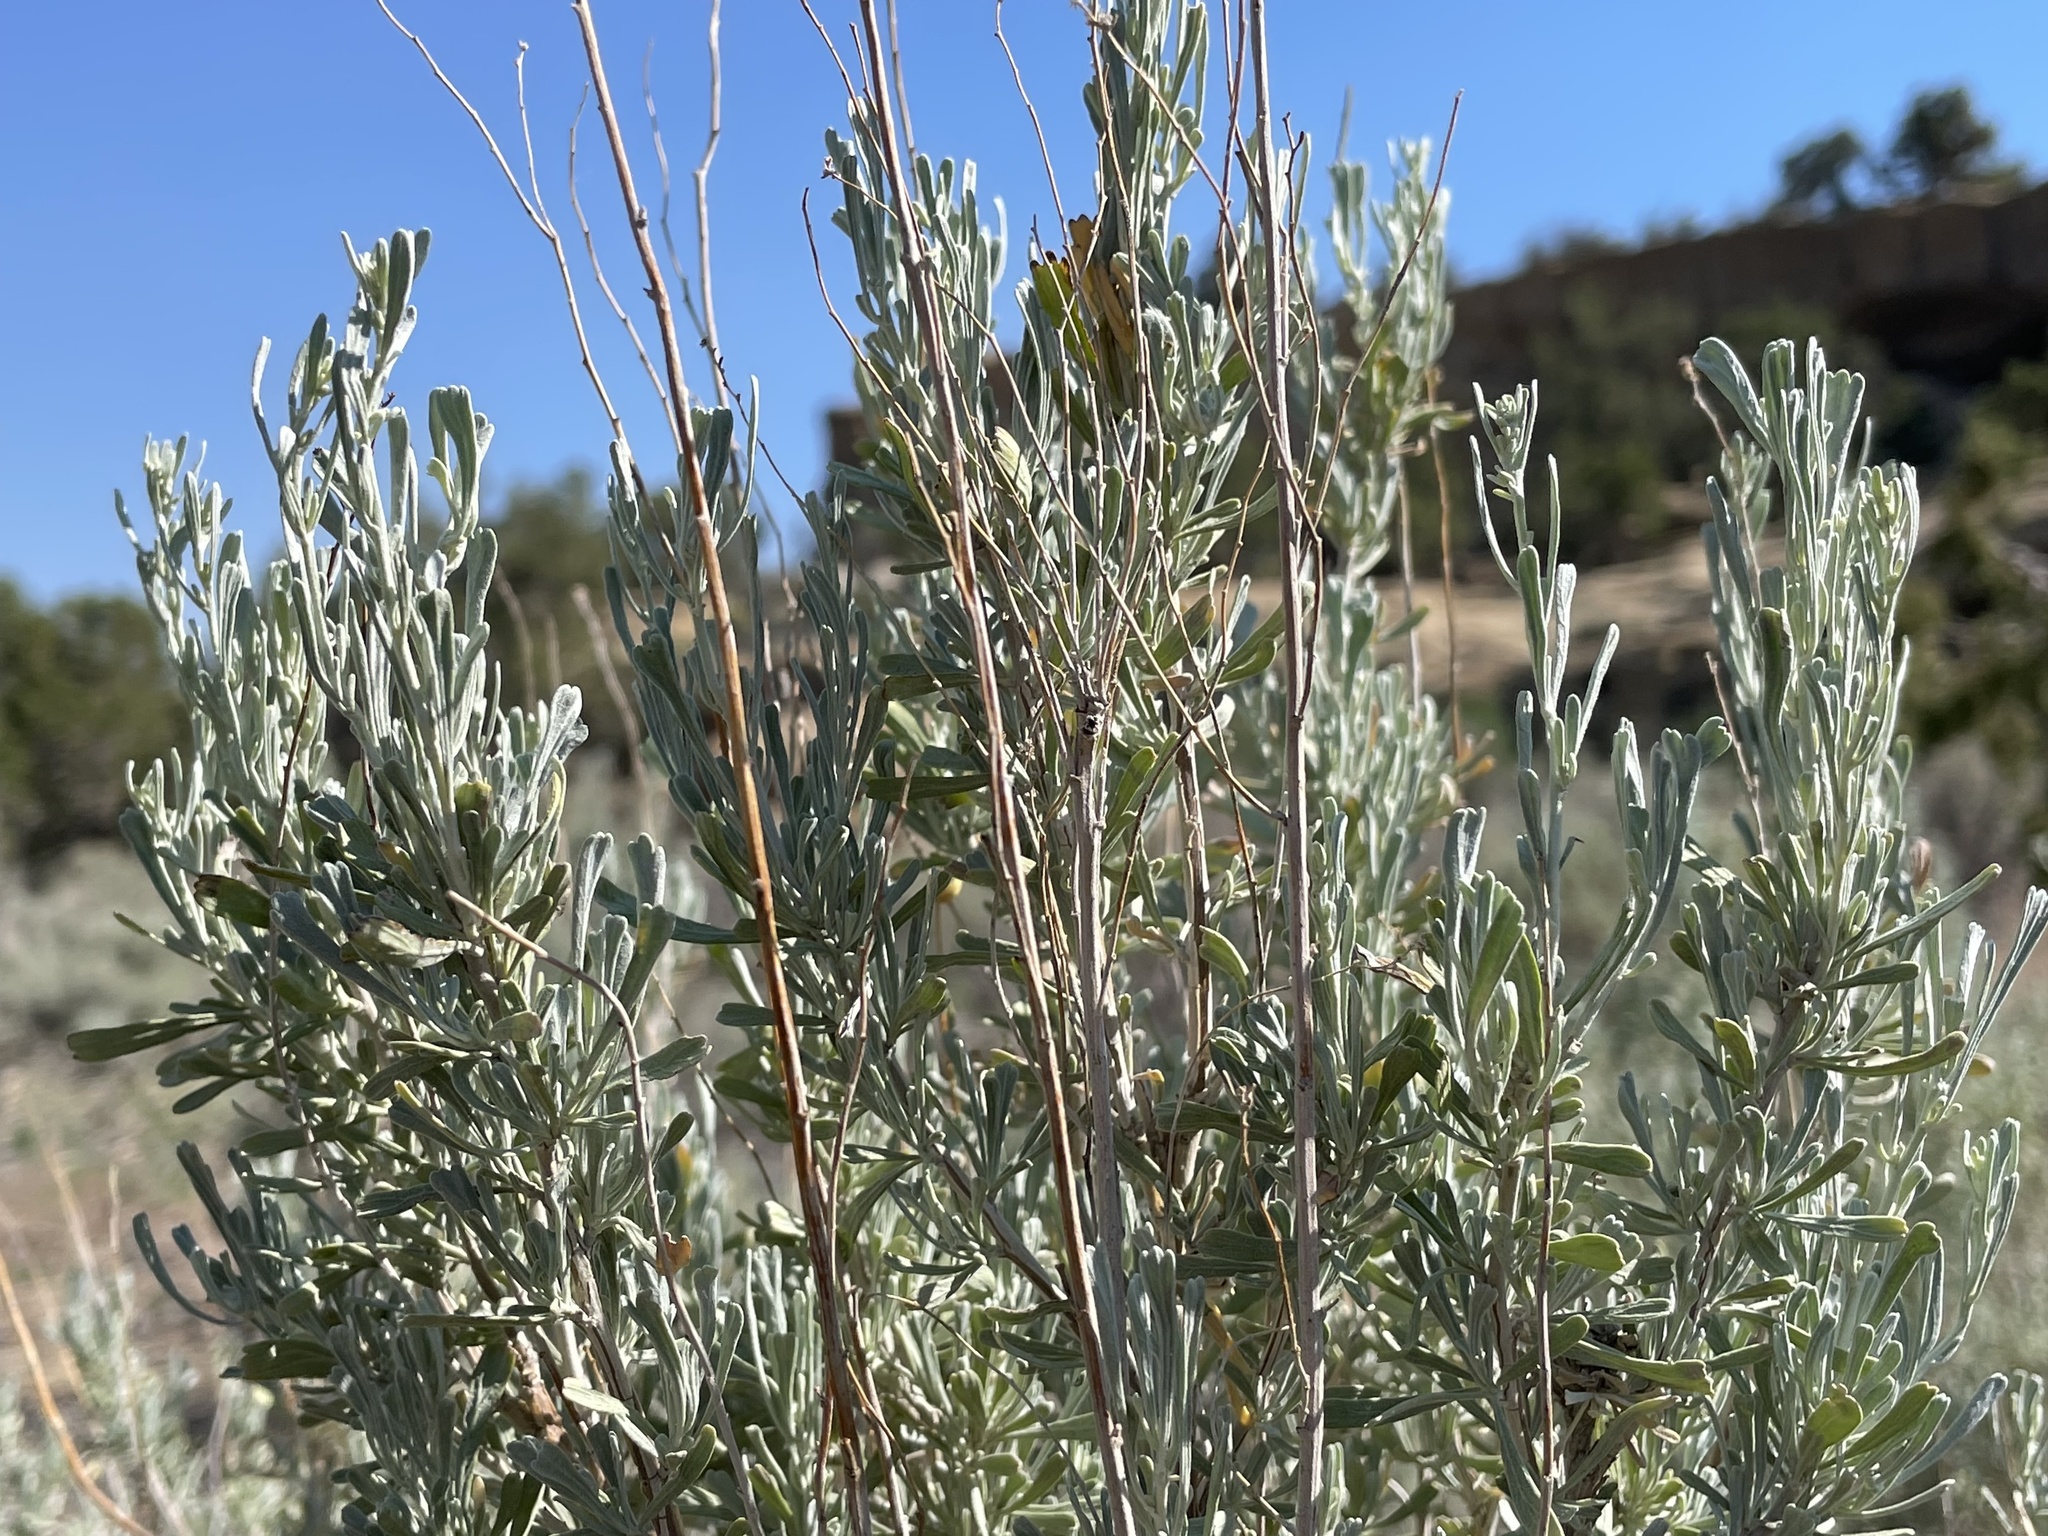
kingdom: Plantae
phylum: Tracheophyta
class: Magnoliopsida
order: Asterales
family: Asteraceae
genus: Artemisia
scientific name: Artemisia tridentata
